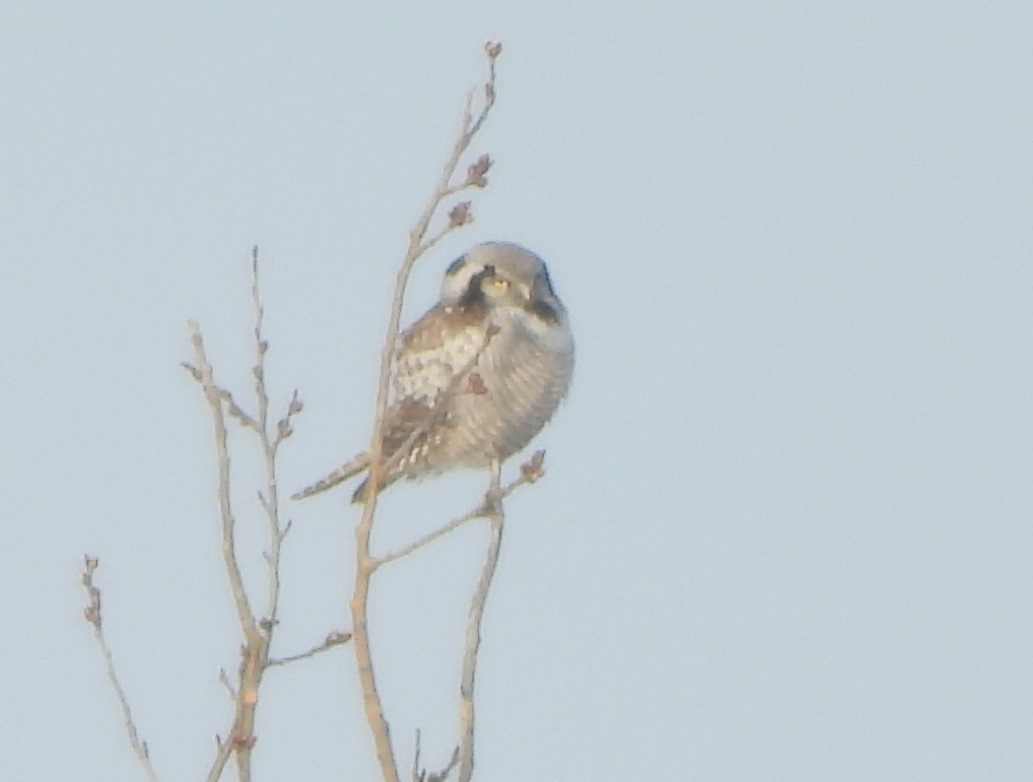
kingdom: Animalia
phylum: Chordata
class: Aves
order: Strigiformes
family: Strigidae
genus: Surnia
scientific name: Surnia ulula
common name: Northern hawk-owl
